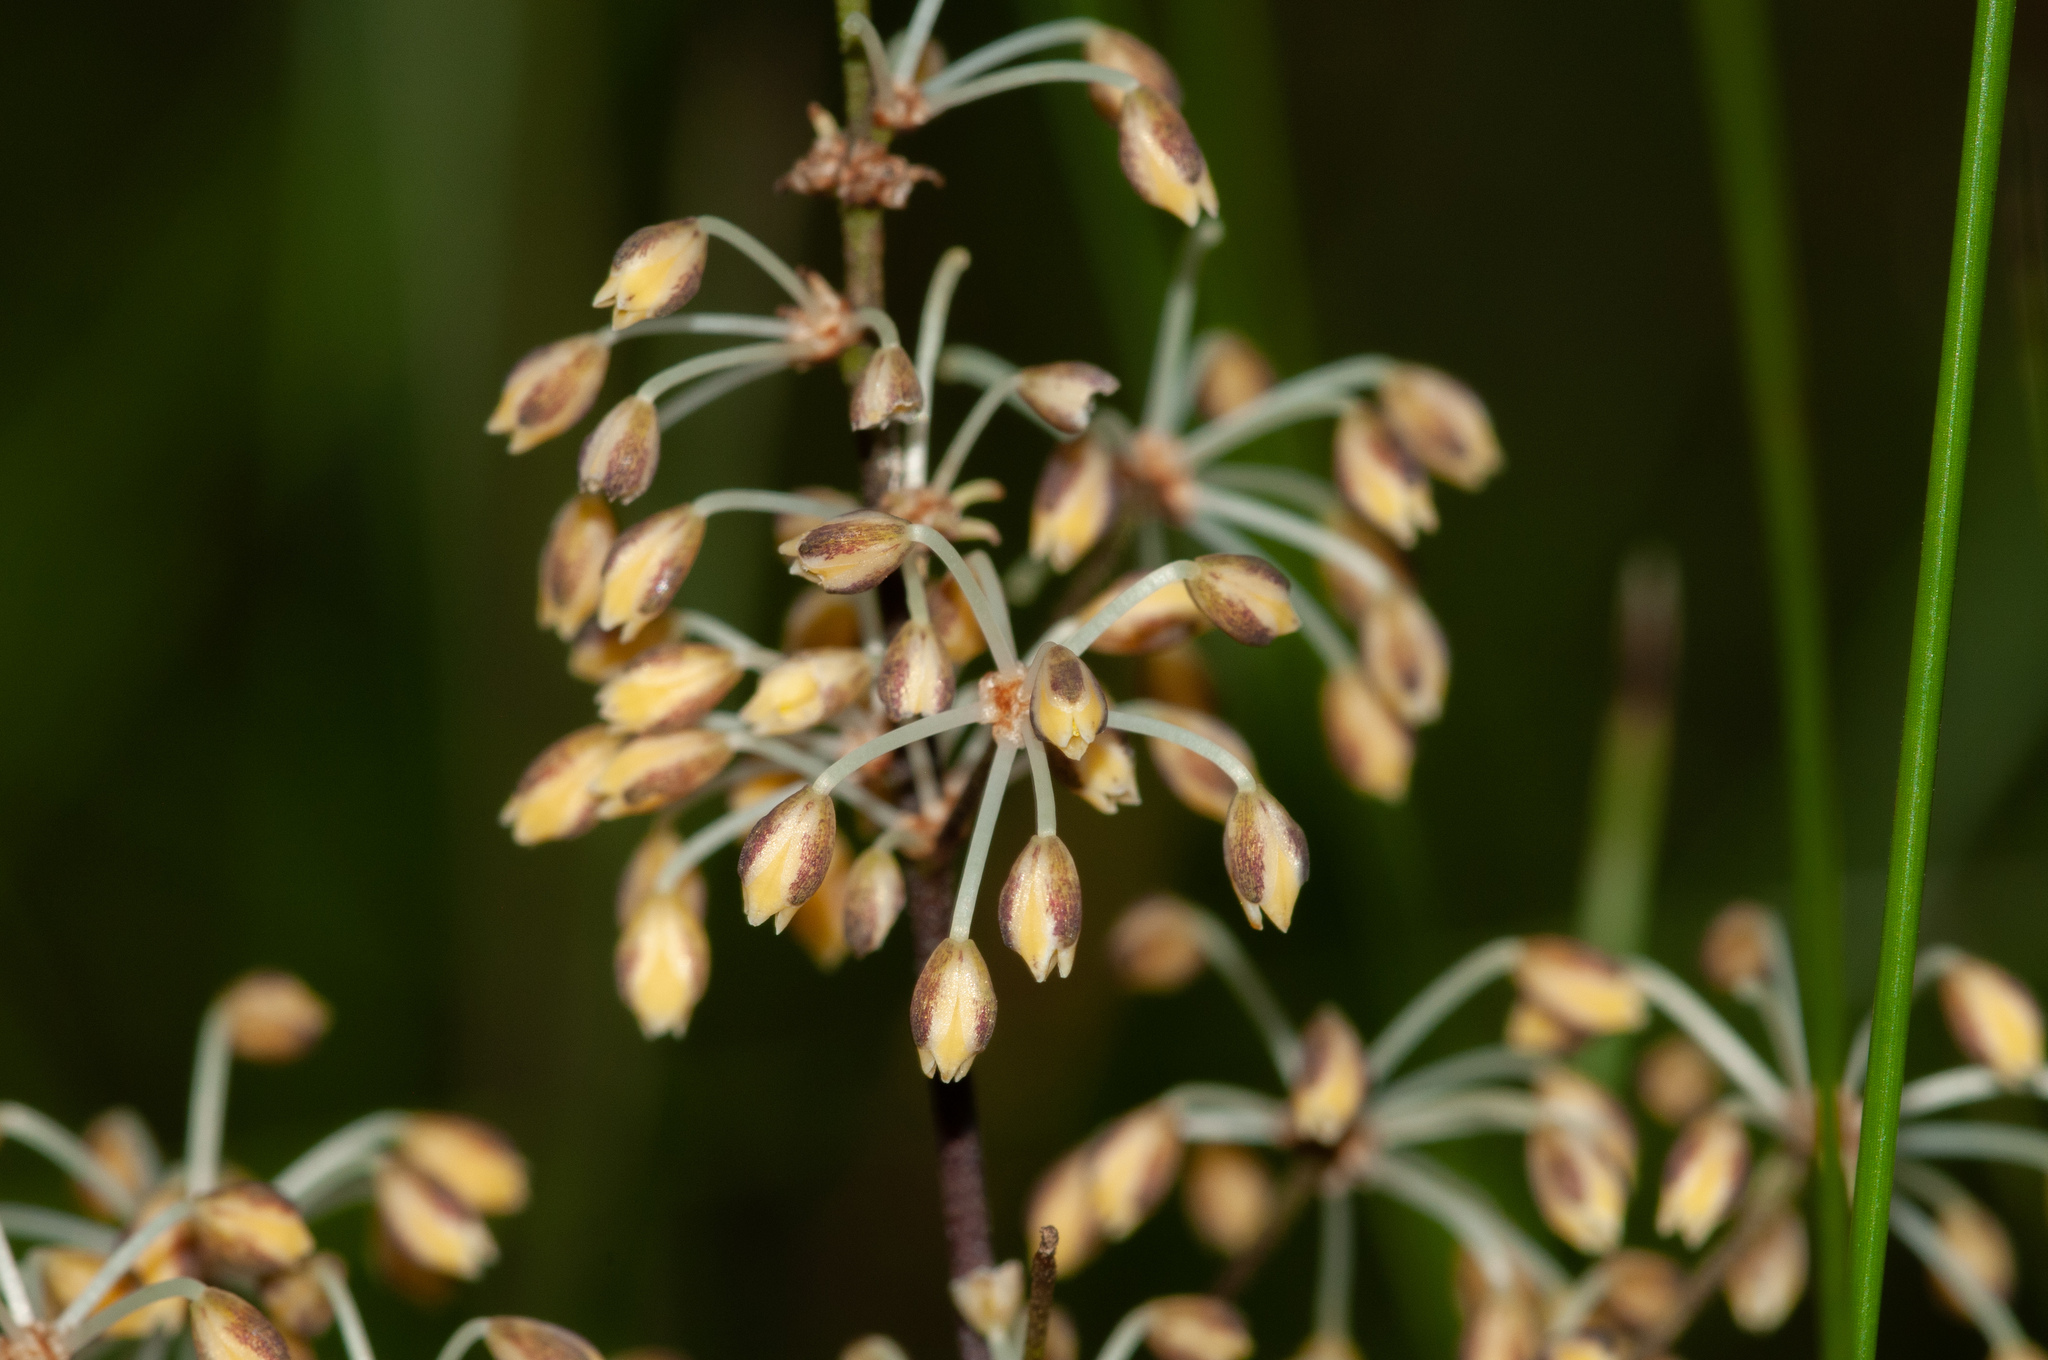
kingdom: Plantae
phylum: Tracheophyta
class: Liliopsida
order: Asparagales
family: Asparagaceae
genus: Lomandra
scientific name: Lomandra multiflora
